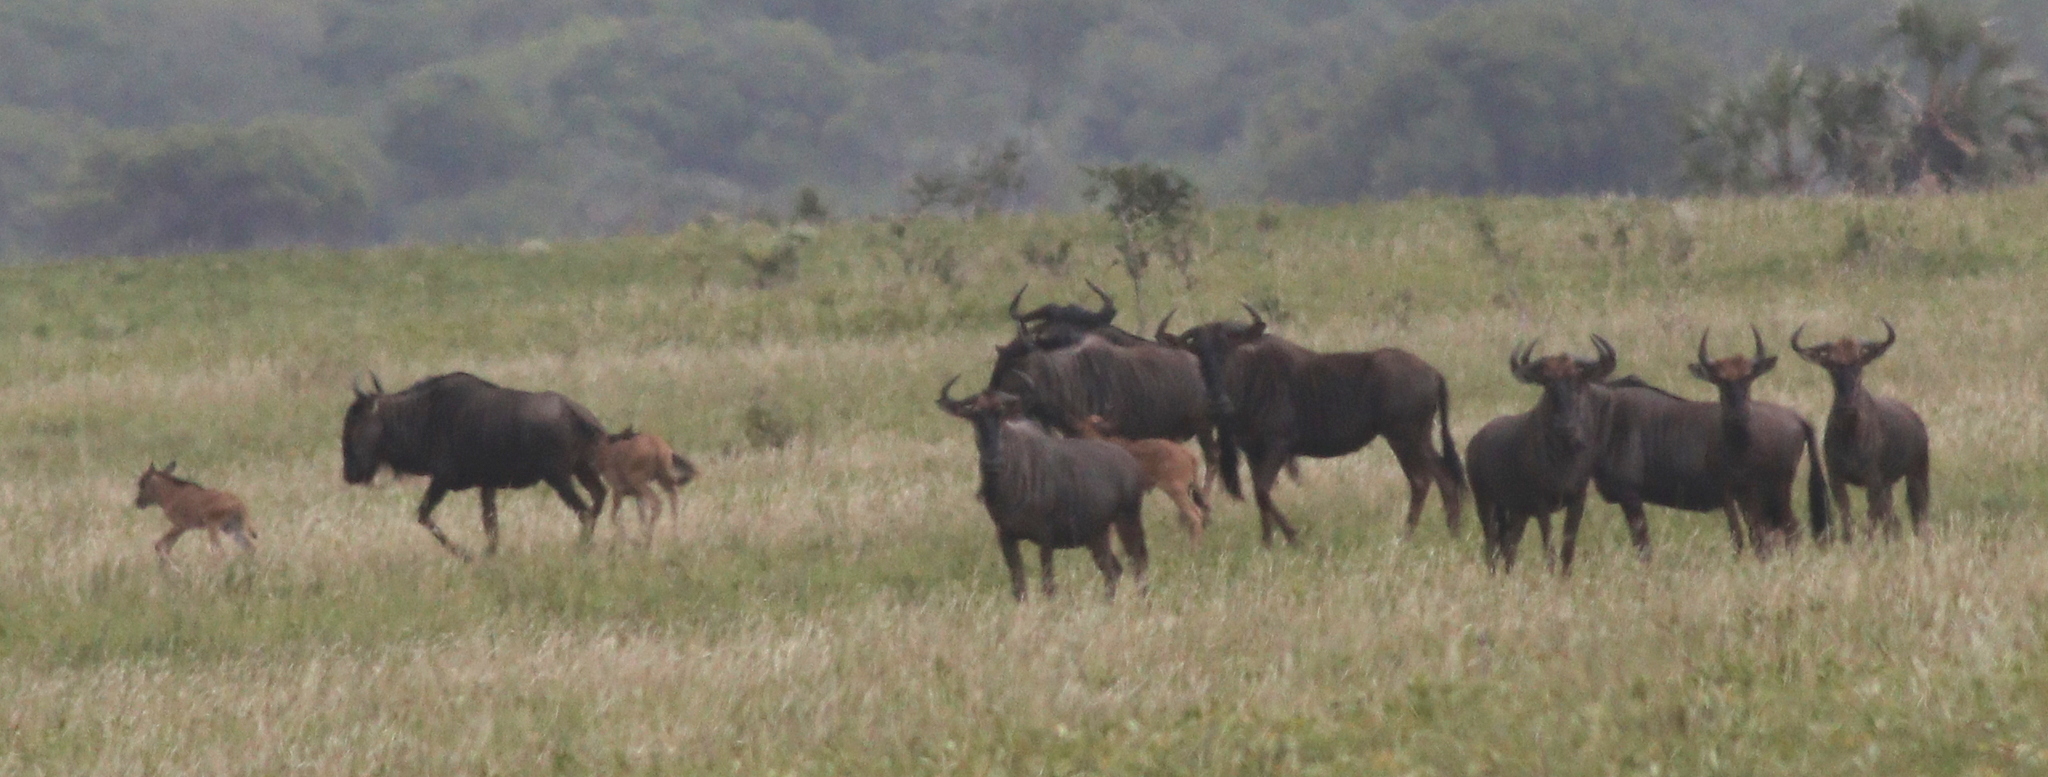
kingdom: Animalia
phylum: Chordata
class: Mammalia
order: Artiodactyla
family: Bovidae
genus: Connochaetes
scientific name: Connochaetes taurinus
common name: Blue wildebeest
